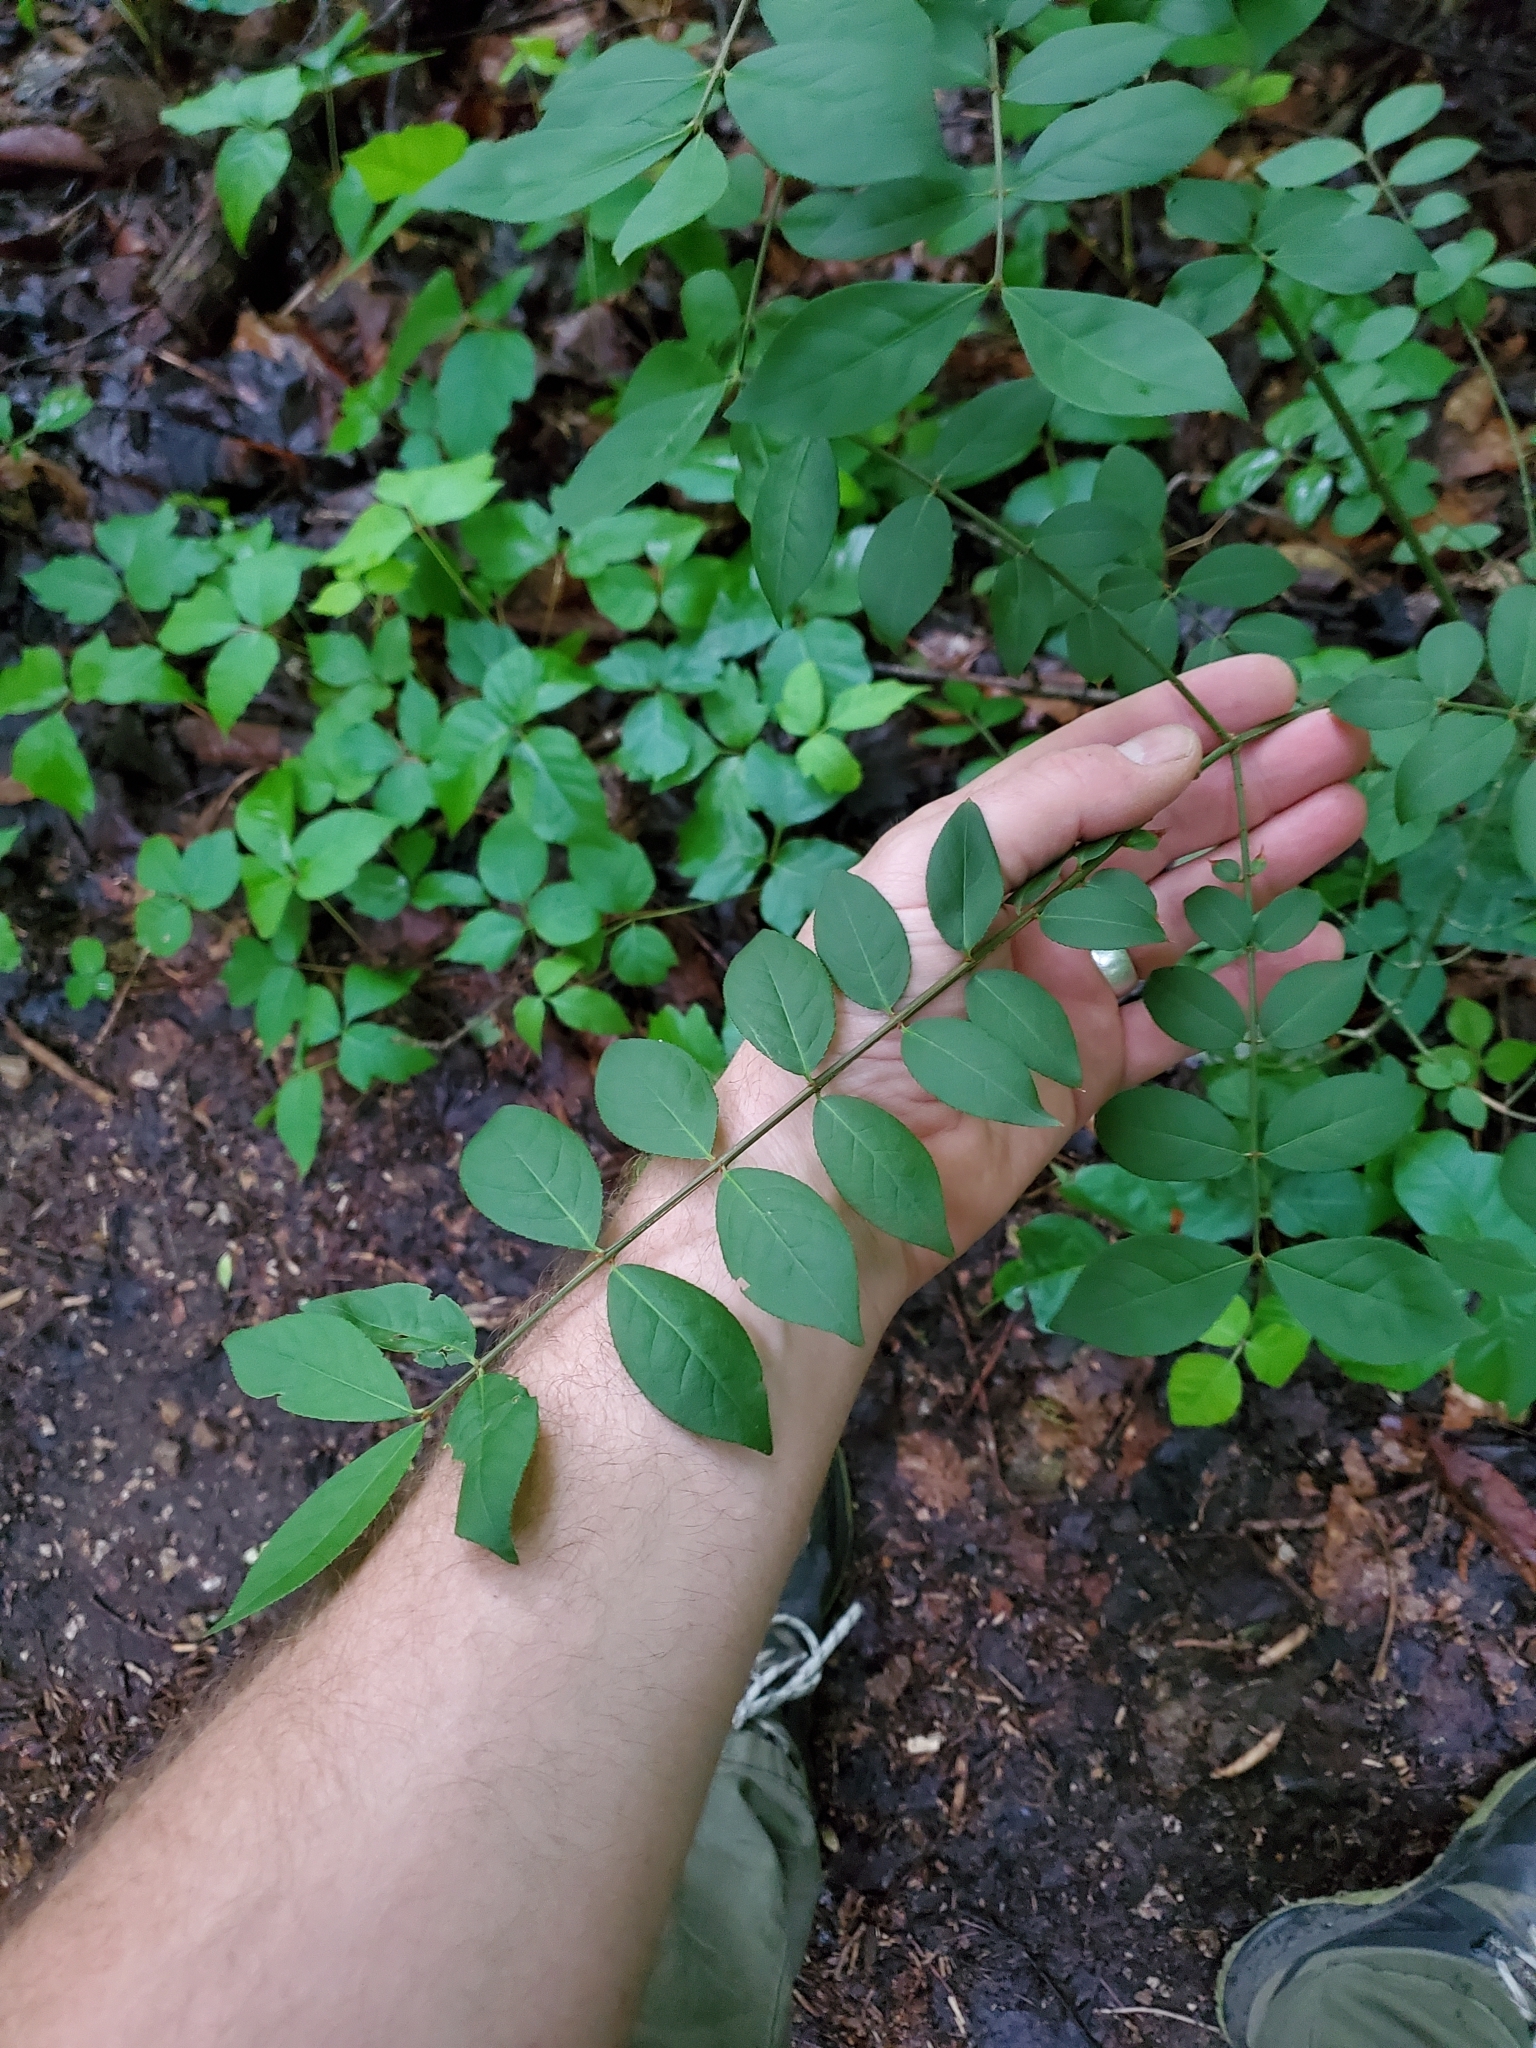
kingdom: Plantae
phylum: Tracheophyta
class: Magnoliopsida
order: Celastrales
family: Celastraceae
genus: Euonymus
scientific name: Euonymus alatus
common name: Winged euonymus
